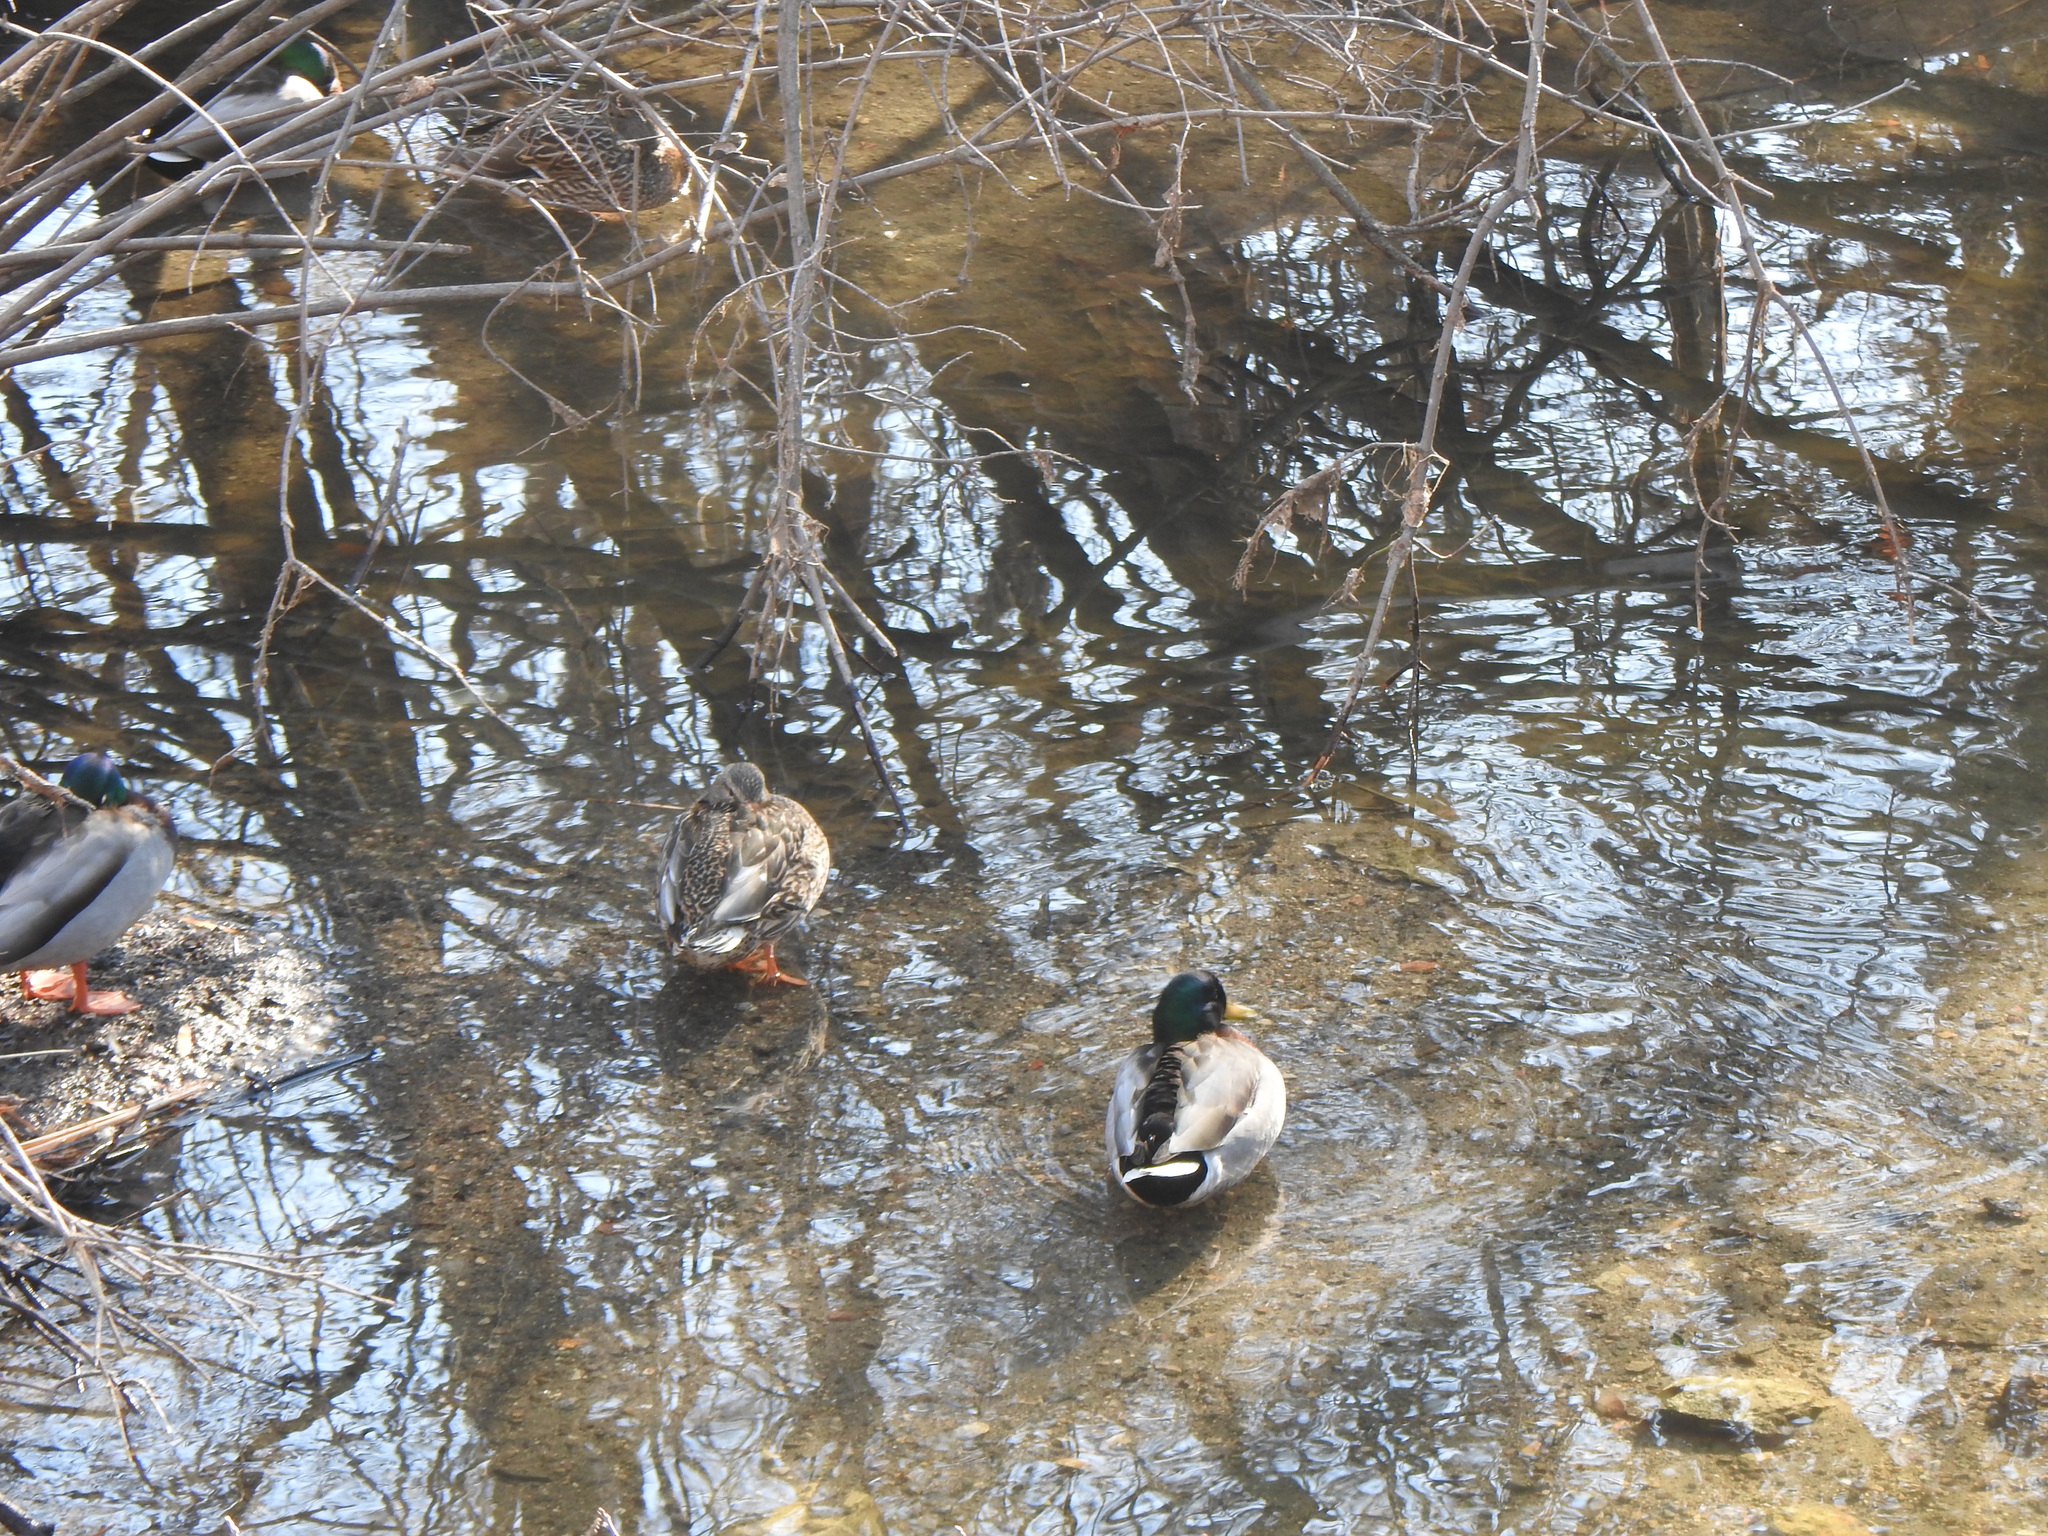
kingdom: Animalia
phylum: Chordata
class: Aves
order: Anseriformes
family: Anatidae
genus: Anas
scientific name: Anas platyrhynchos
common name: Mallard
